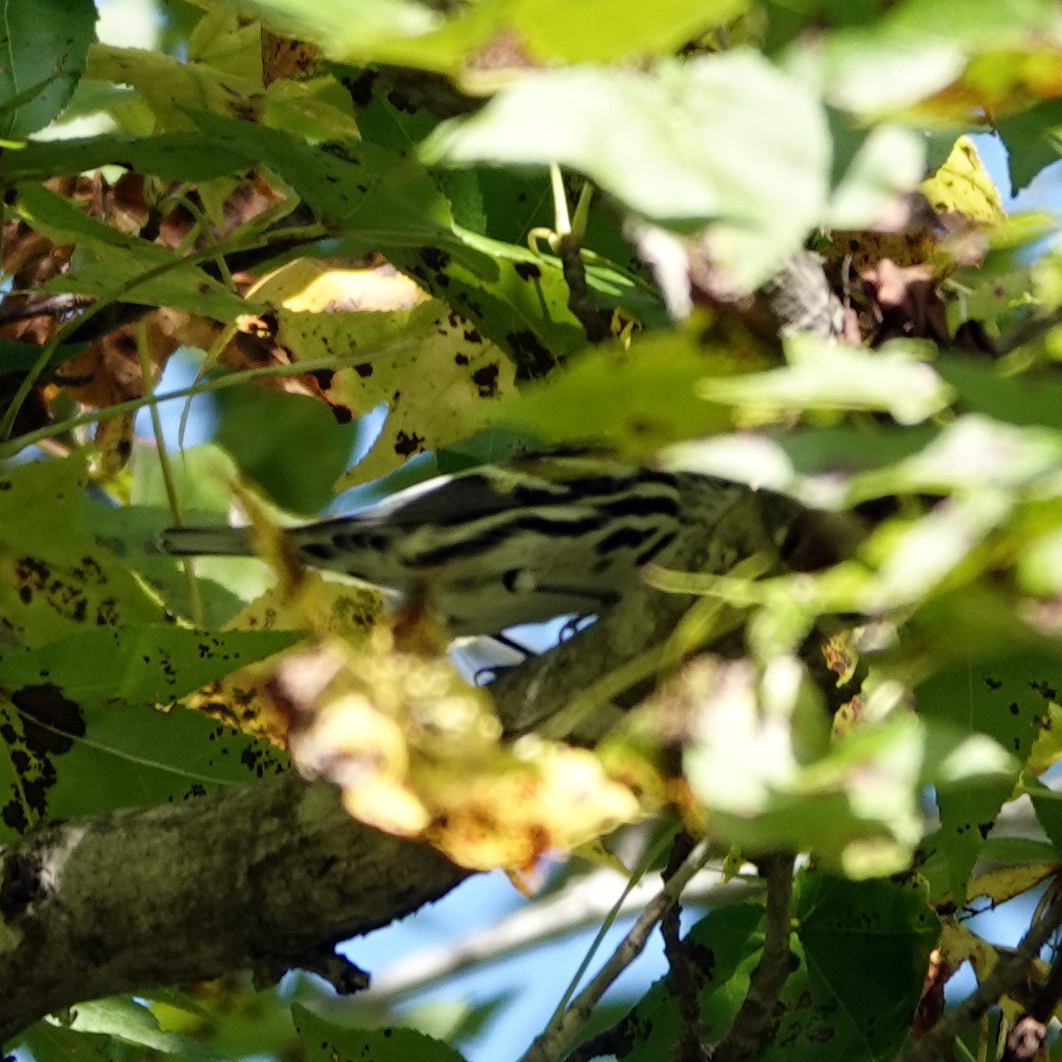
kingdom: Animalia
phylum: Chordata
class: Aves
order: Passeriformes
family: Parulidae
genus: Mniotilta
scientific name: Mniotilta varia
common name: Black-and-white warbler
